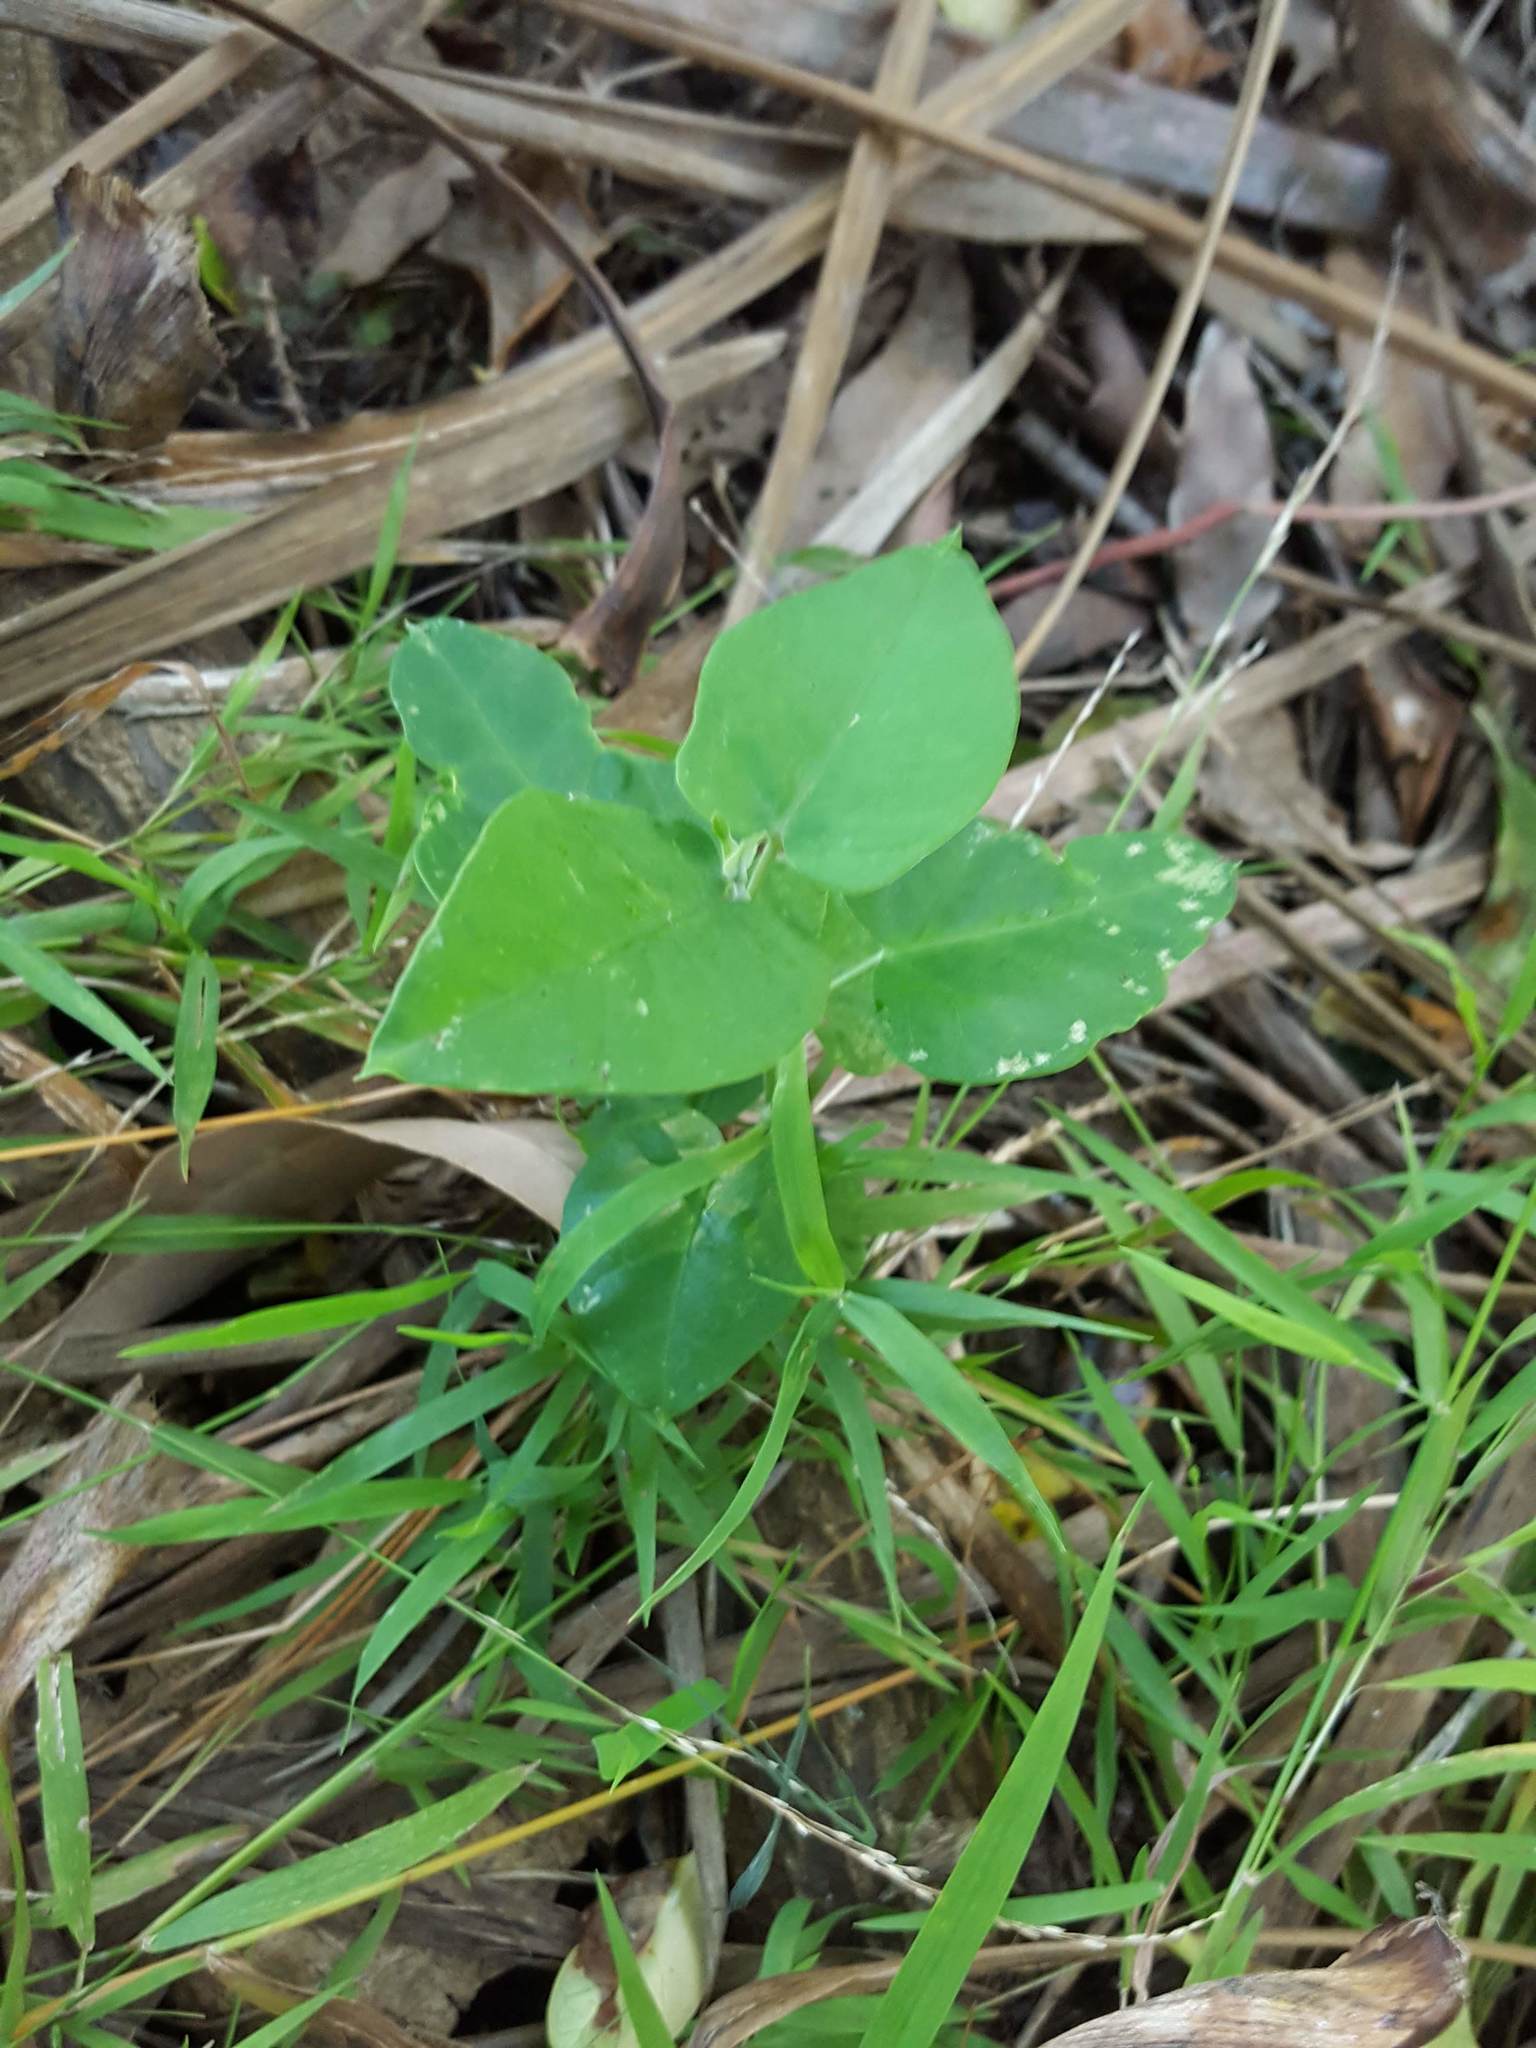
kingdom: Plantae
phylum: Tracheophyta
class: Magnoliopsida
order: Gentianales
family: Apocynaceae
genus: Araujia
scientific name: Araujia sericifera
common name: White bladderflower
